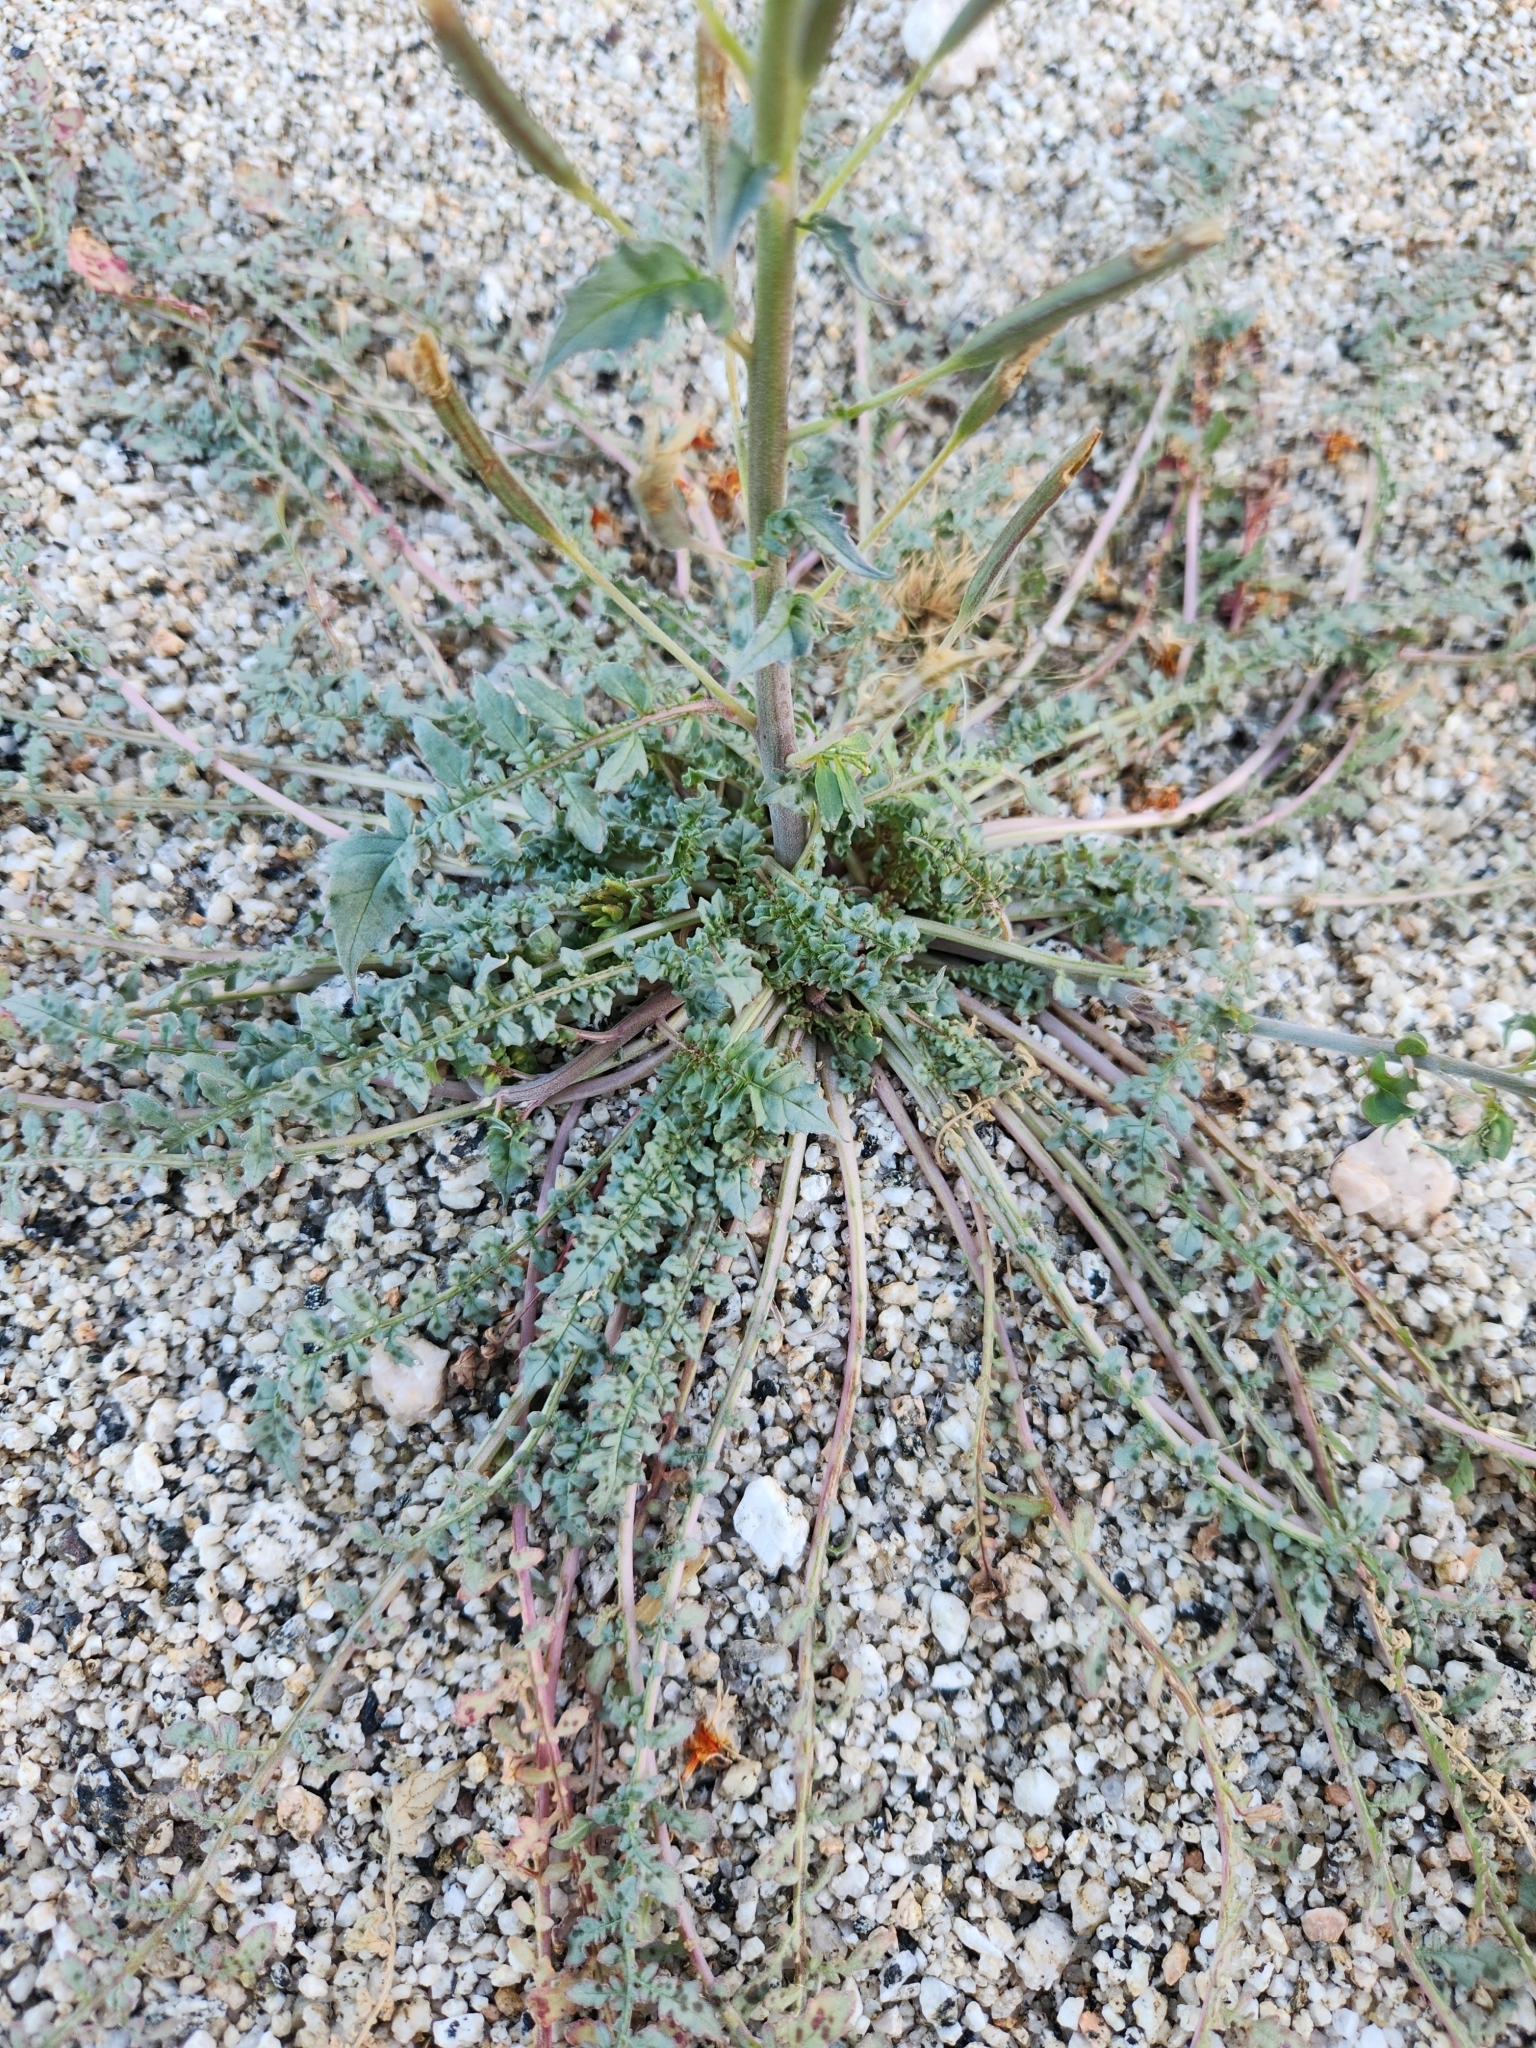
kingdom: Plantae
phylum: Tracheophyta
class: Magnoliopsida
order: Myrtales
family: Onagraceae
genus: Chylismia
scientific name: Chylismia claviformis
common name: Browneyes
